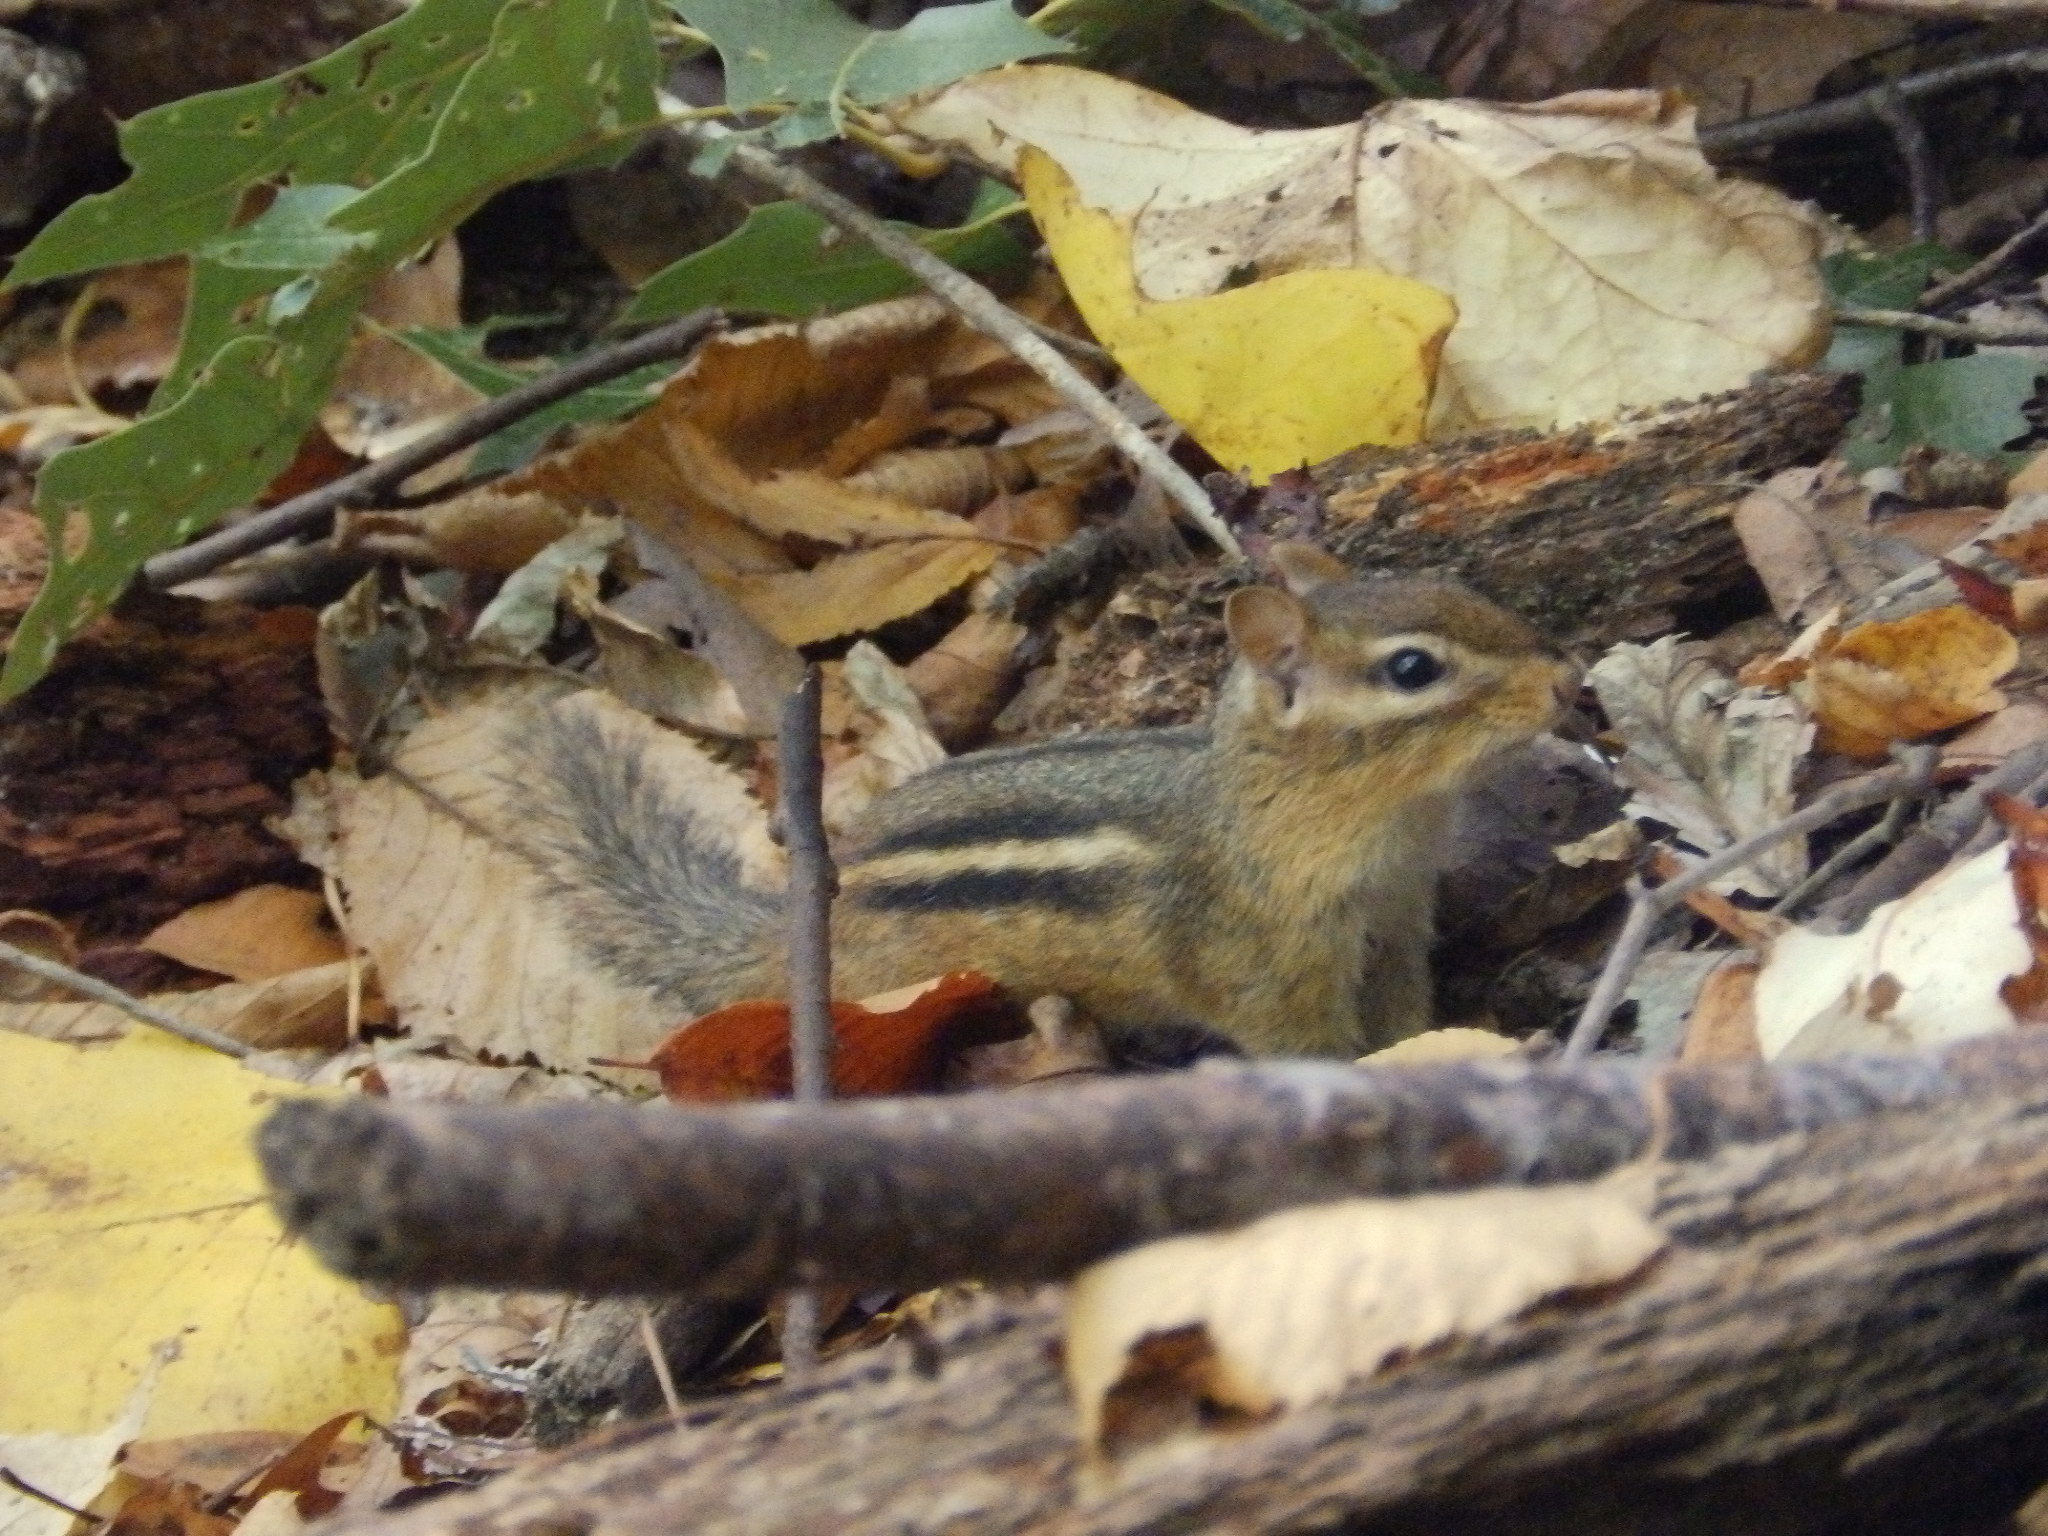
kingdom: Animalia
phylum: Chordata
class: Mammalia
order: Rodentia
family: Sciuridae
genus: Tamias
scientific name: Tamias striatus
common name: Eastern chipmunk
